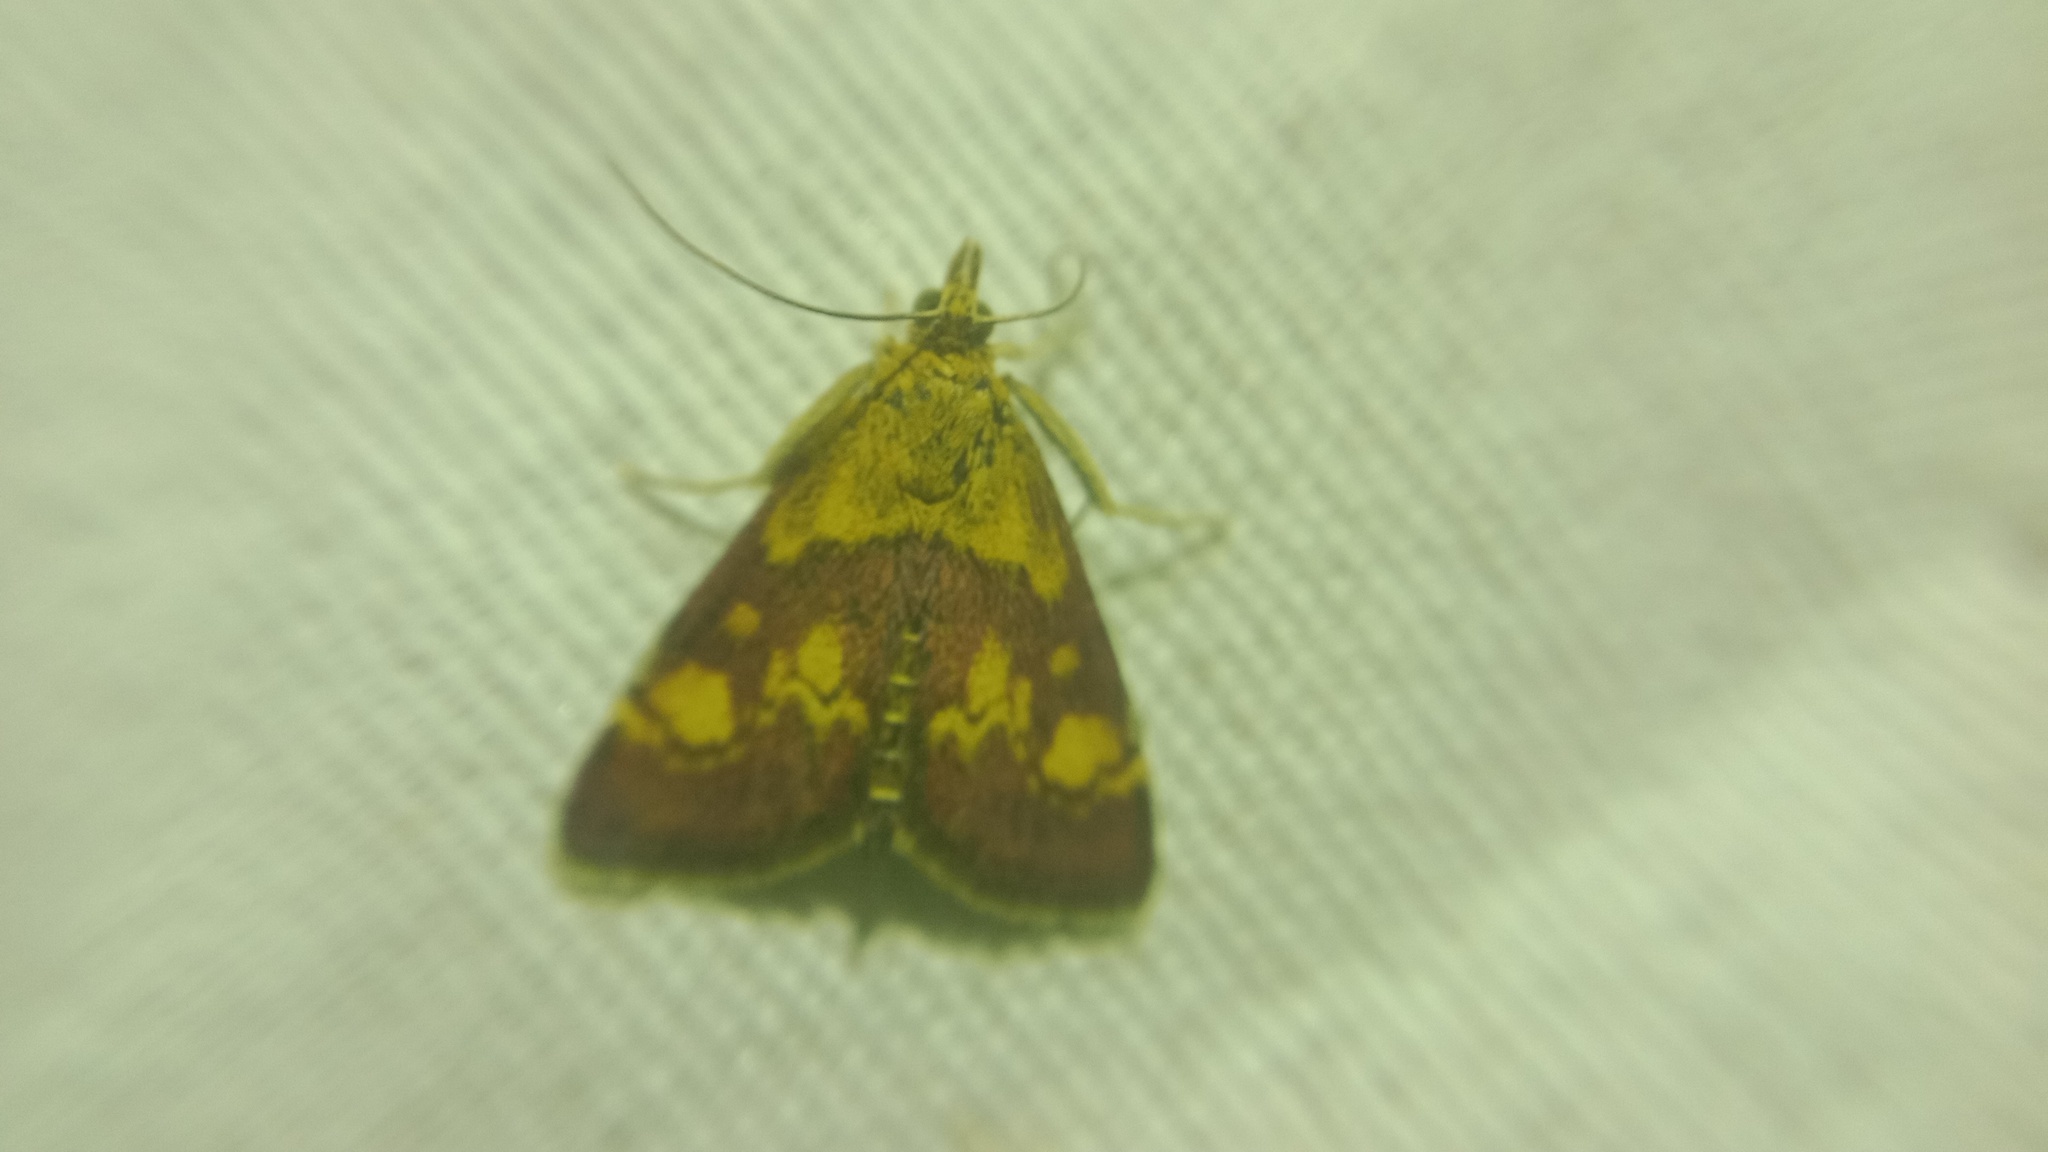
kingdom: Animalia
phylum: Arthropoda
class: Insecta
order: Lepidoptera
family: Crambidae
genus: Pyrausta
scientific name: Pyrausta aurata
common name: Small purple & gold
